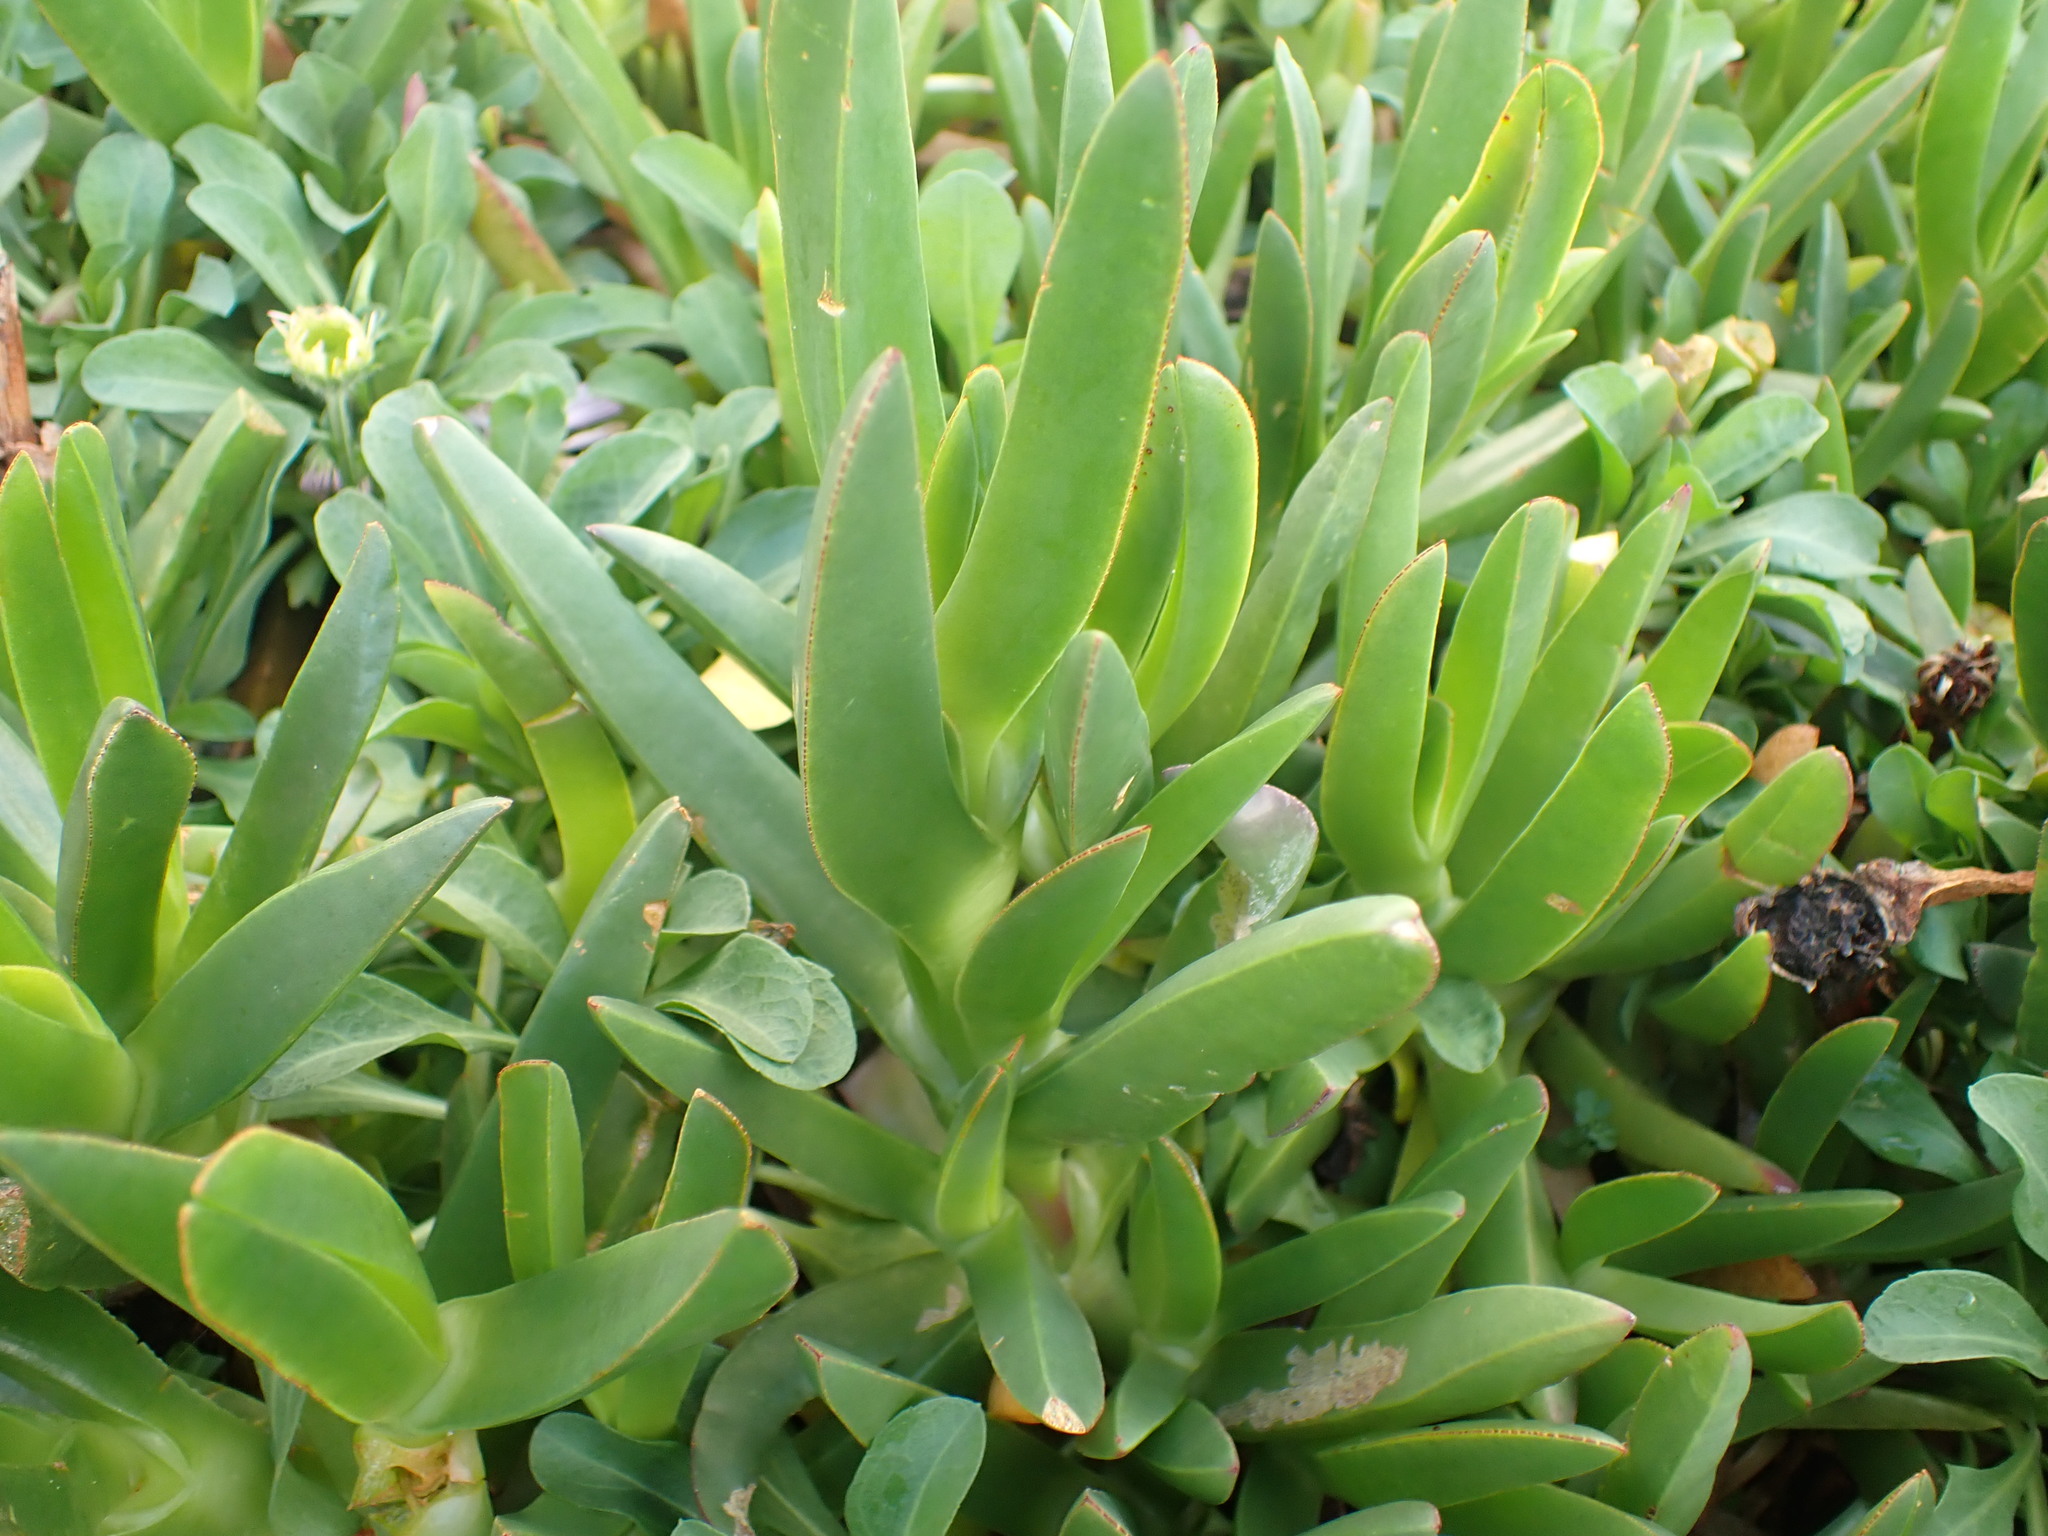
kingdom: Plantae
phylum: Tracheophyta
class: Magnoliopsida
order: Caryophyllales
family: Aizoaceae
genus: Carpobrotus
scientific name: Carpobrotus edulis
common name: Hottentot-fig
